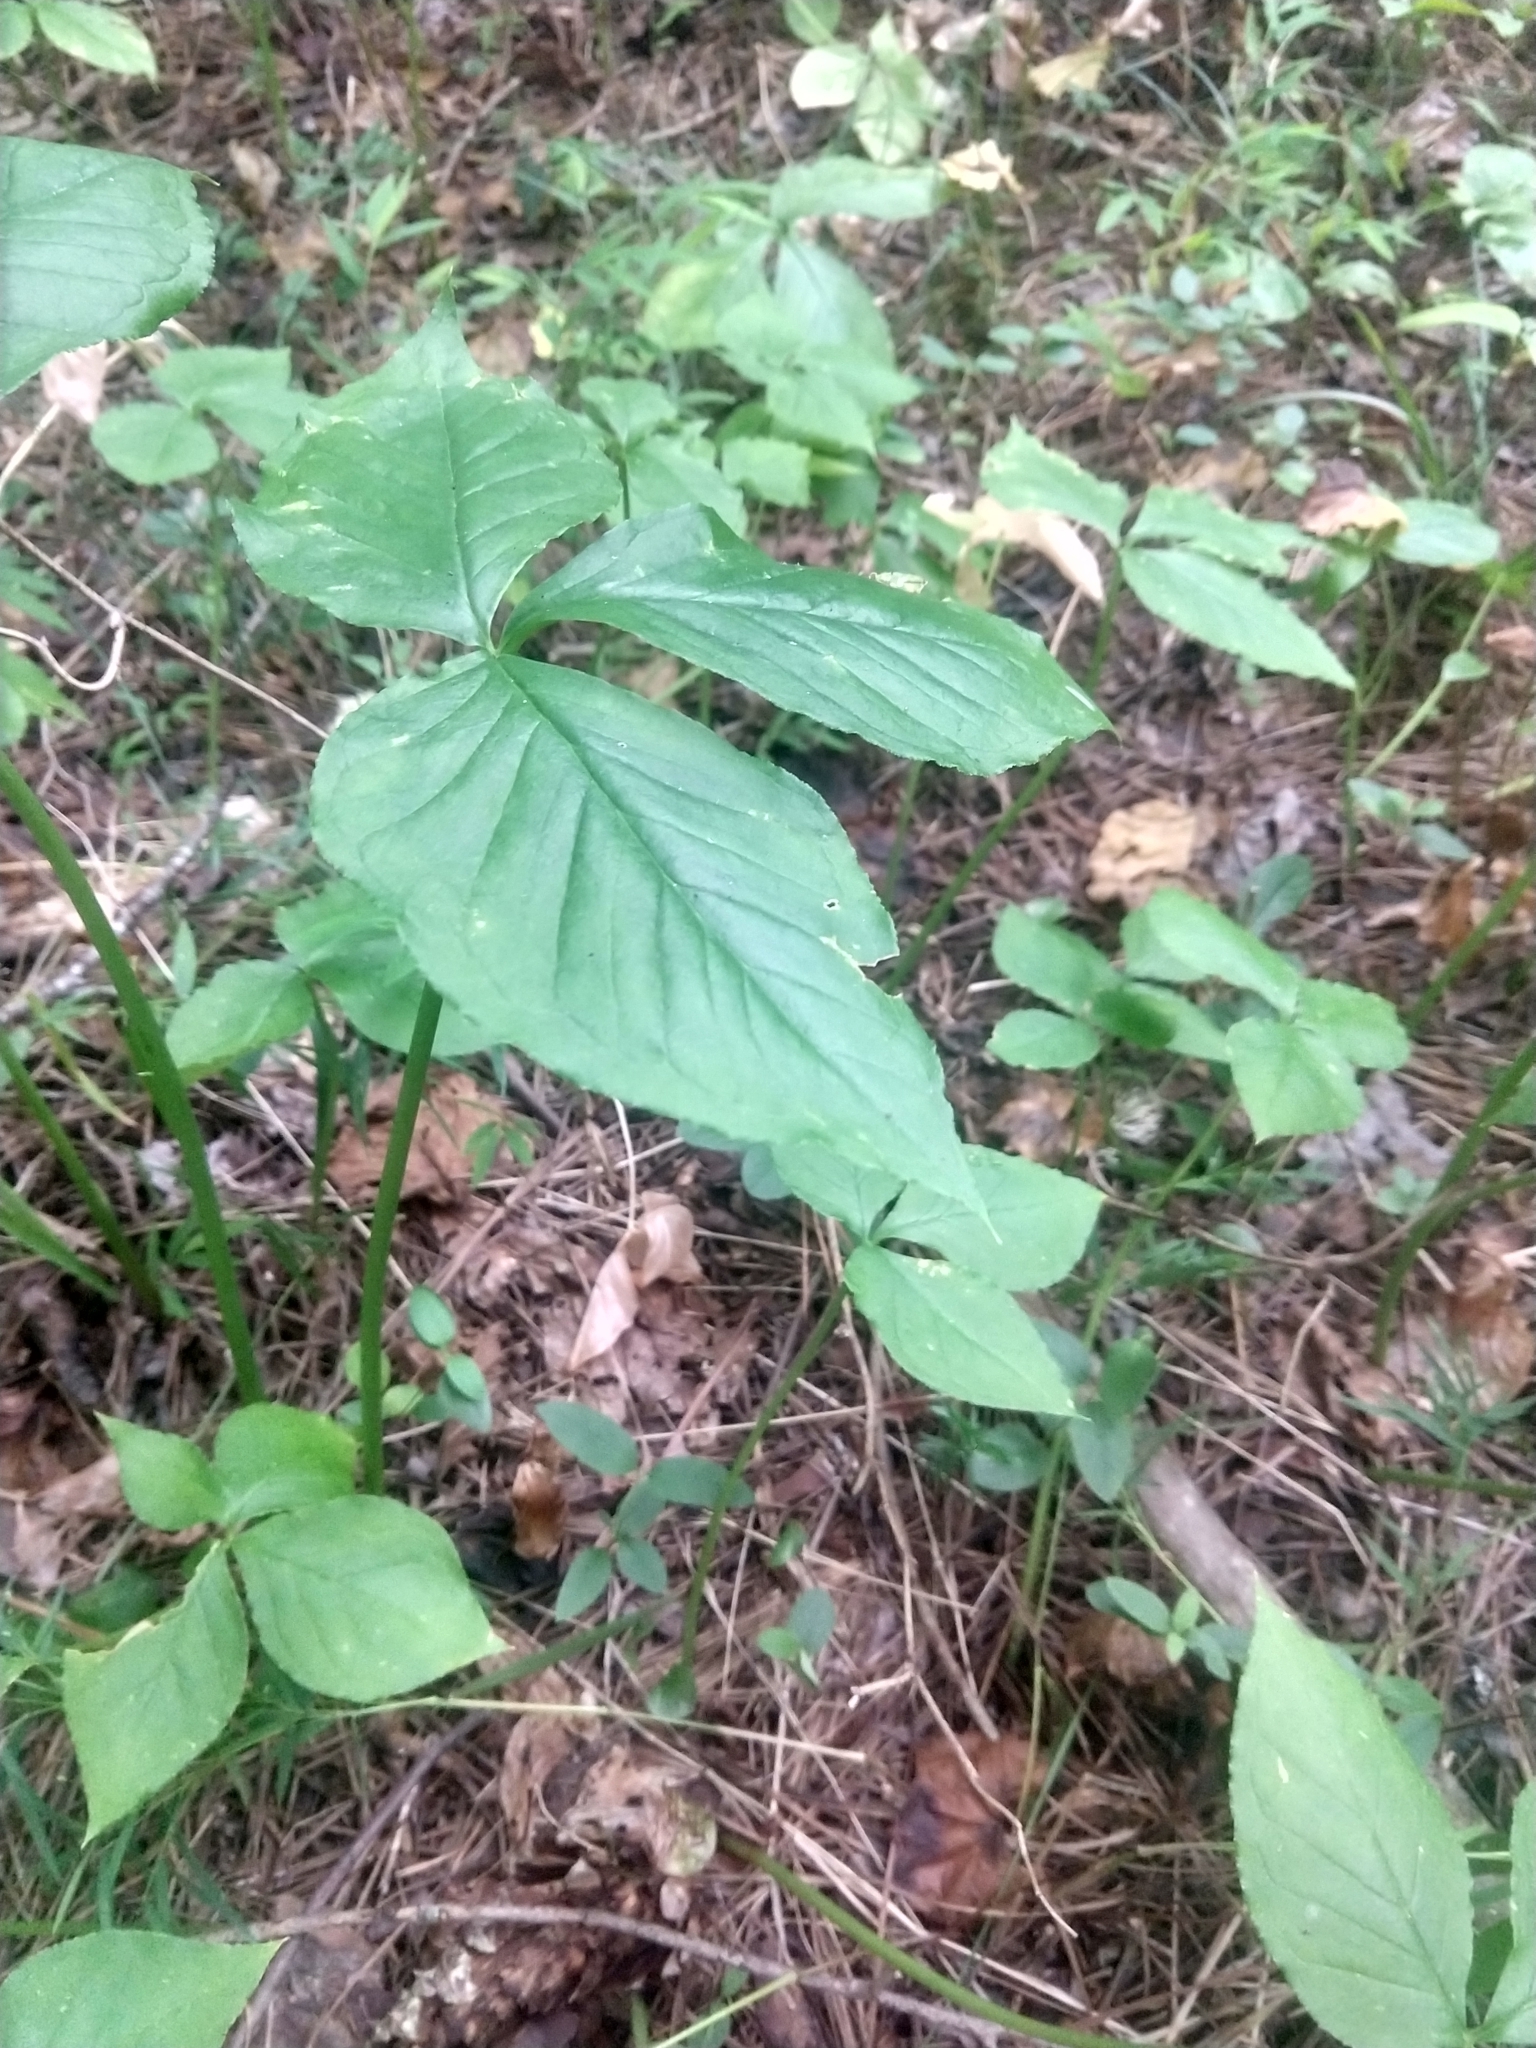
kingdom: Plantae
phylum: Tracheophyta
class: Liliopsida
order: Alismatales
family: Araceae
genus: Arisaema
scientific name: Arisaema triphyllum
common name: Jack-in-the-pulpit
